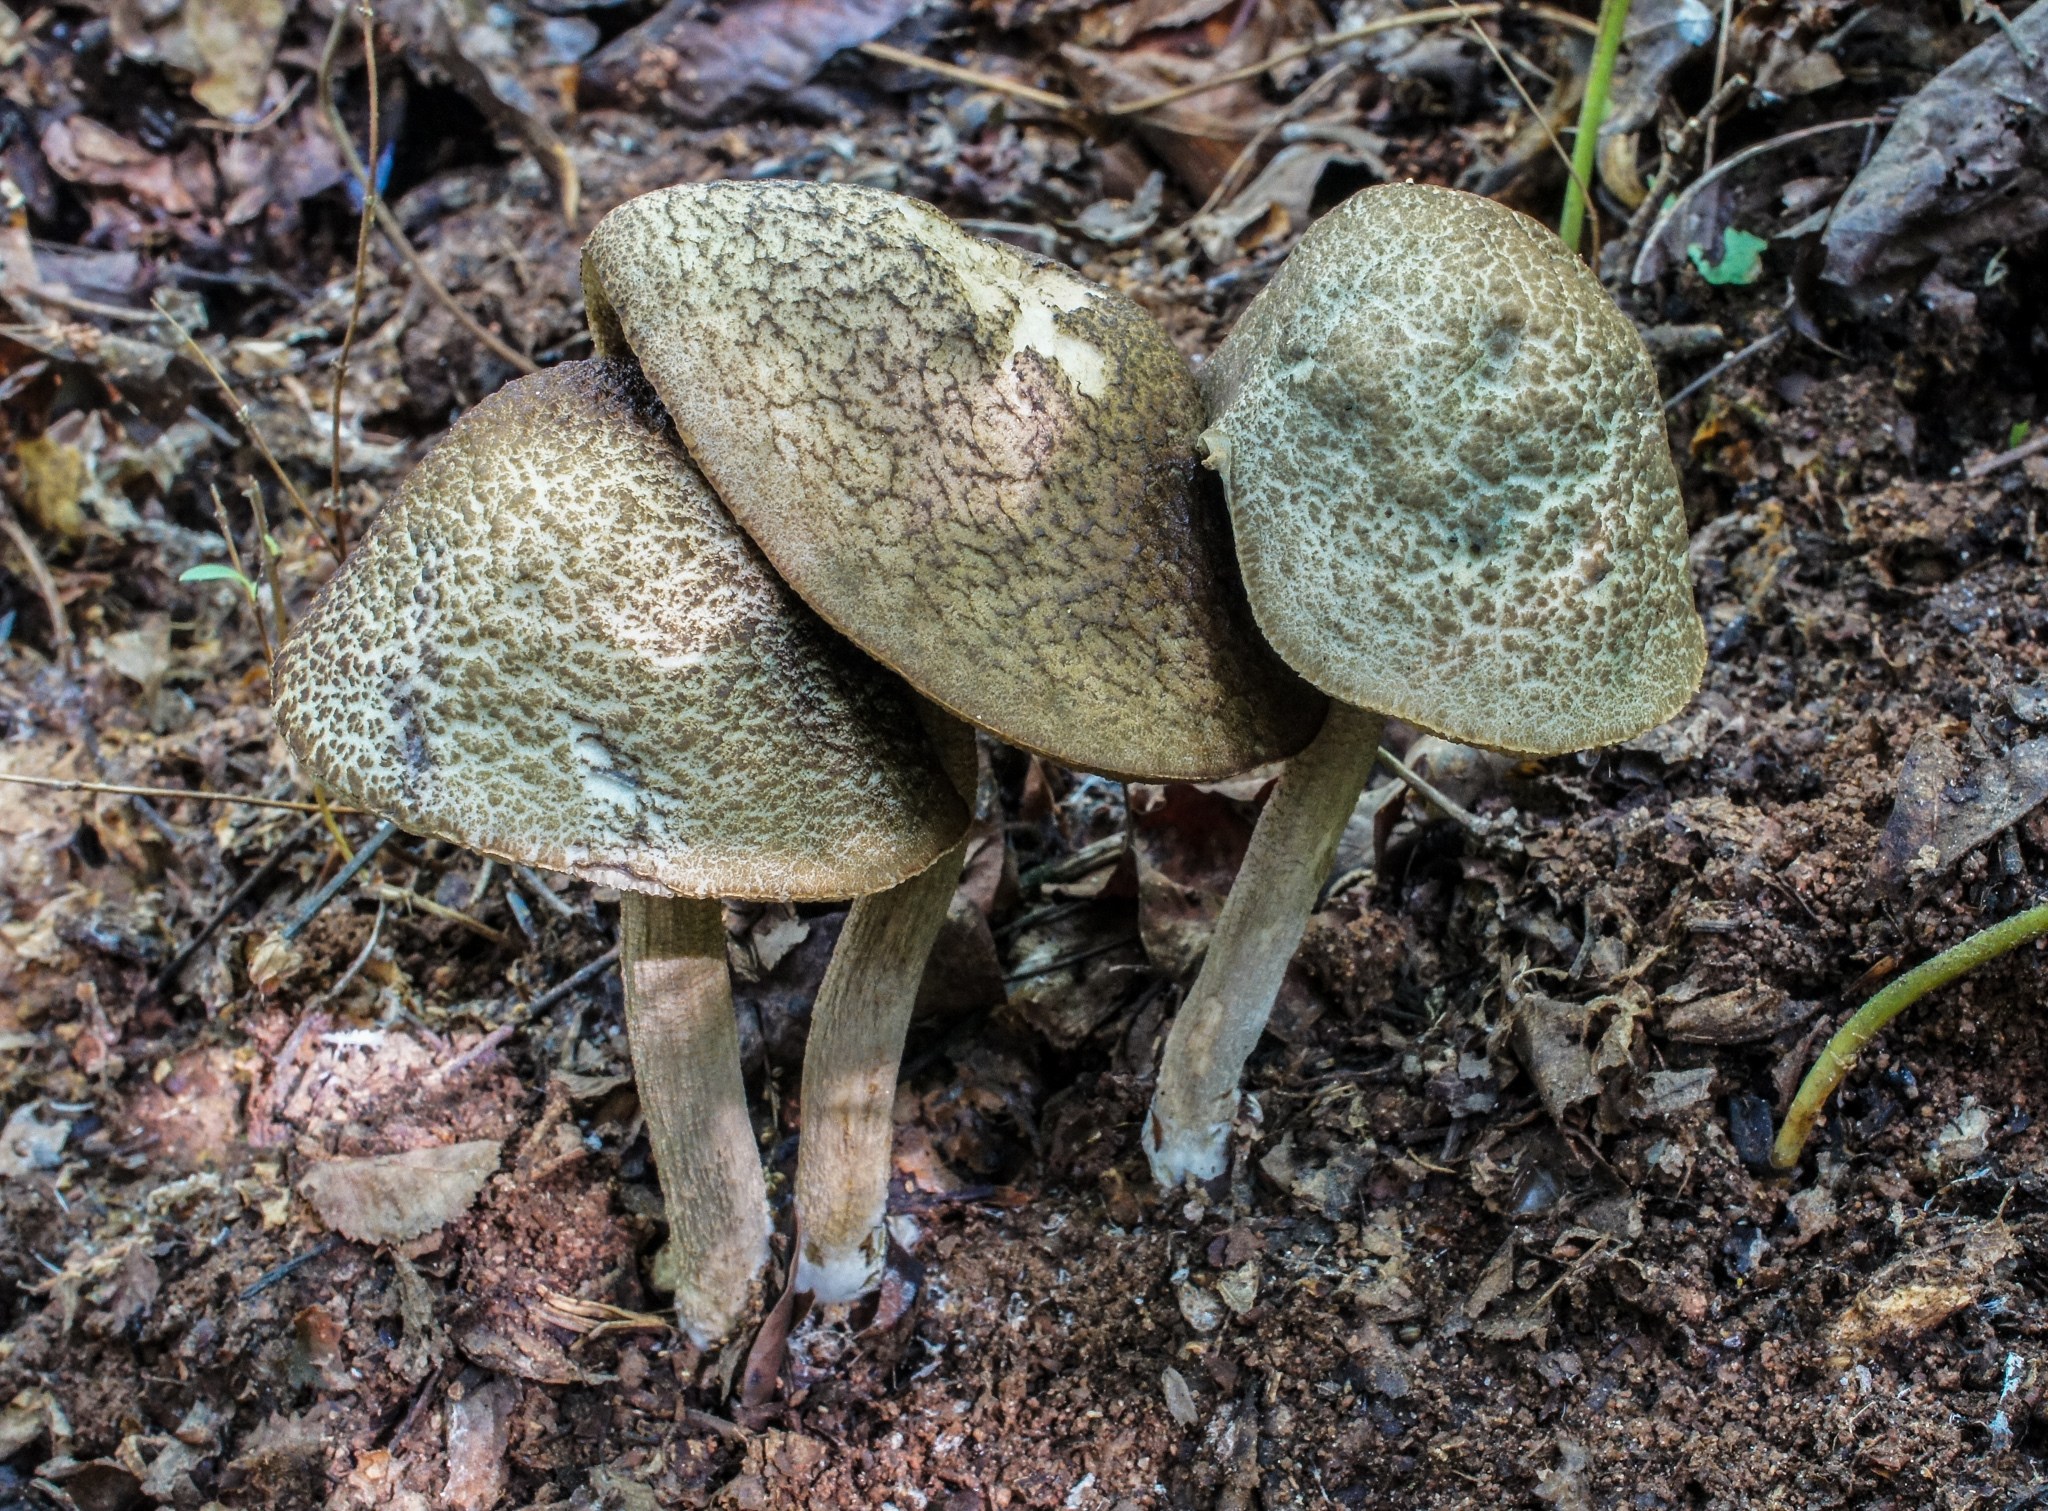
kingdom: Fungi
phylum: Basidiomycota
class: Agaricomycetes
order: Boletales
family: Boletaceae
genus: Leccinellum
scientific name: Leccinellum albellum
